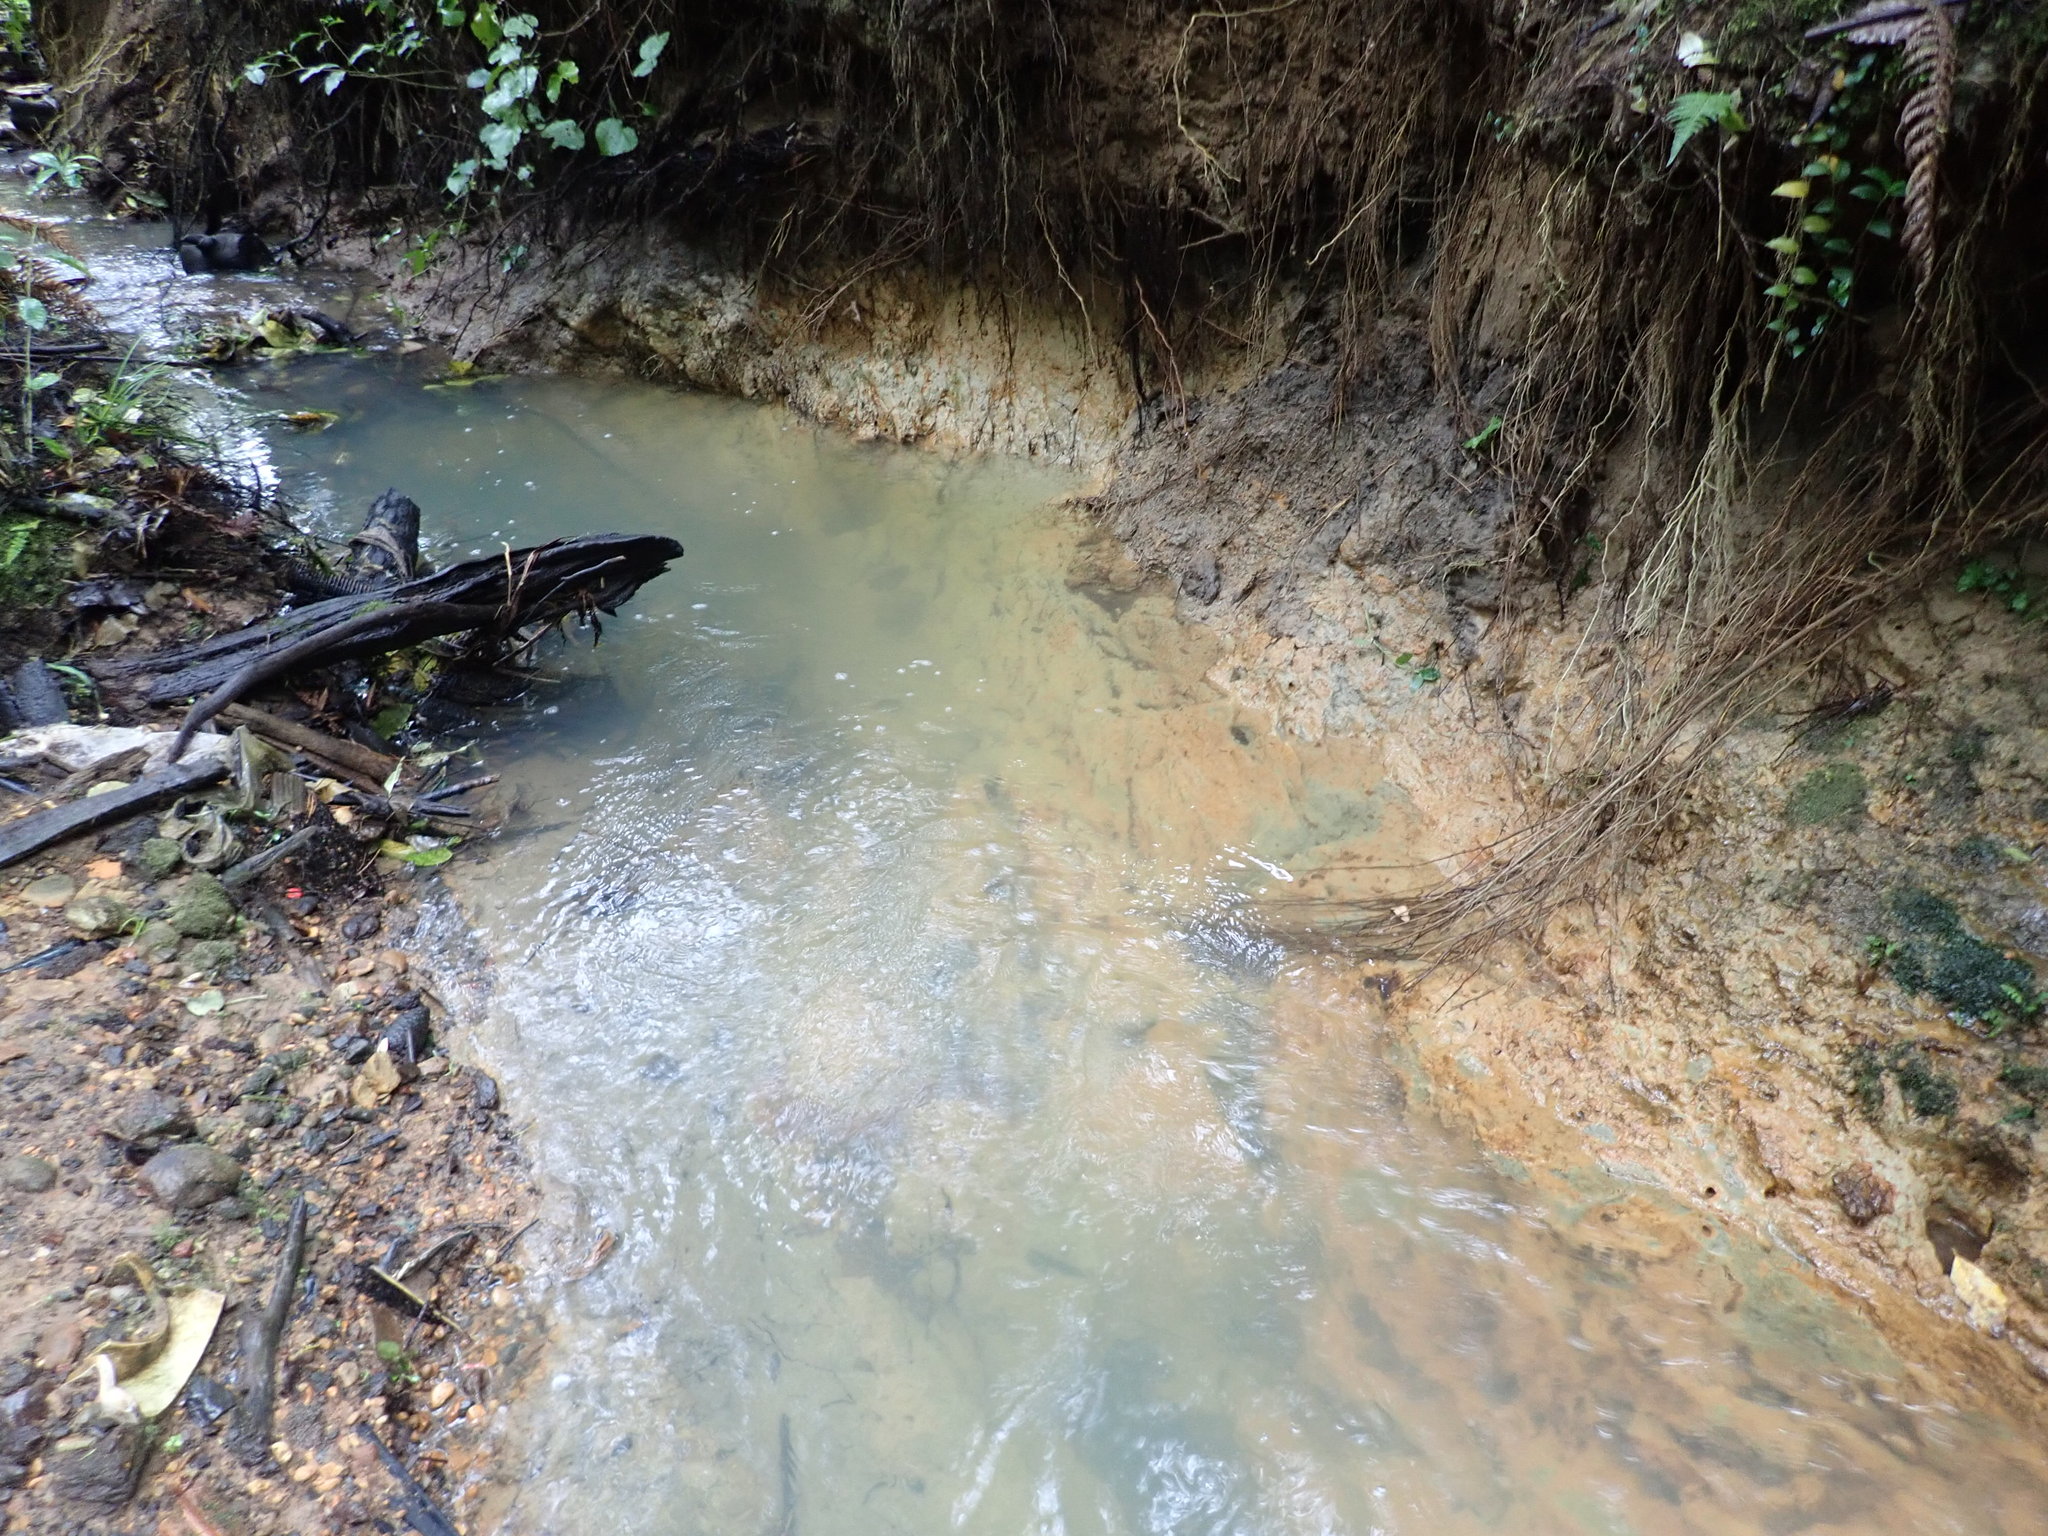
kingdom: Plantae
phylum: Tracheophyta
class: Liliopsida
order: Commelinales
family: Commelinaceae
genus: Tradescantia
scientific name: Tradescantia fluminensis
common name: Wandering-jew
